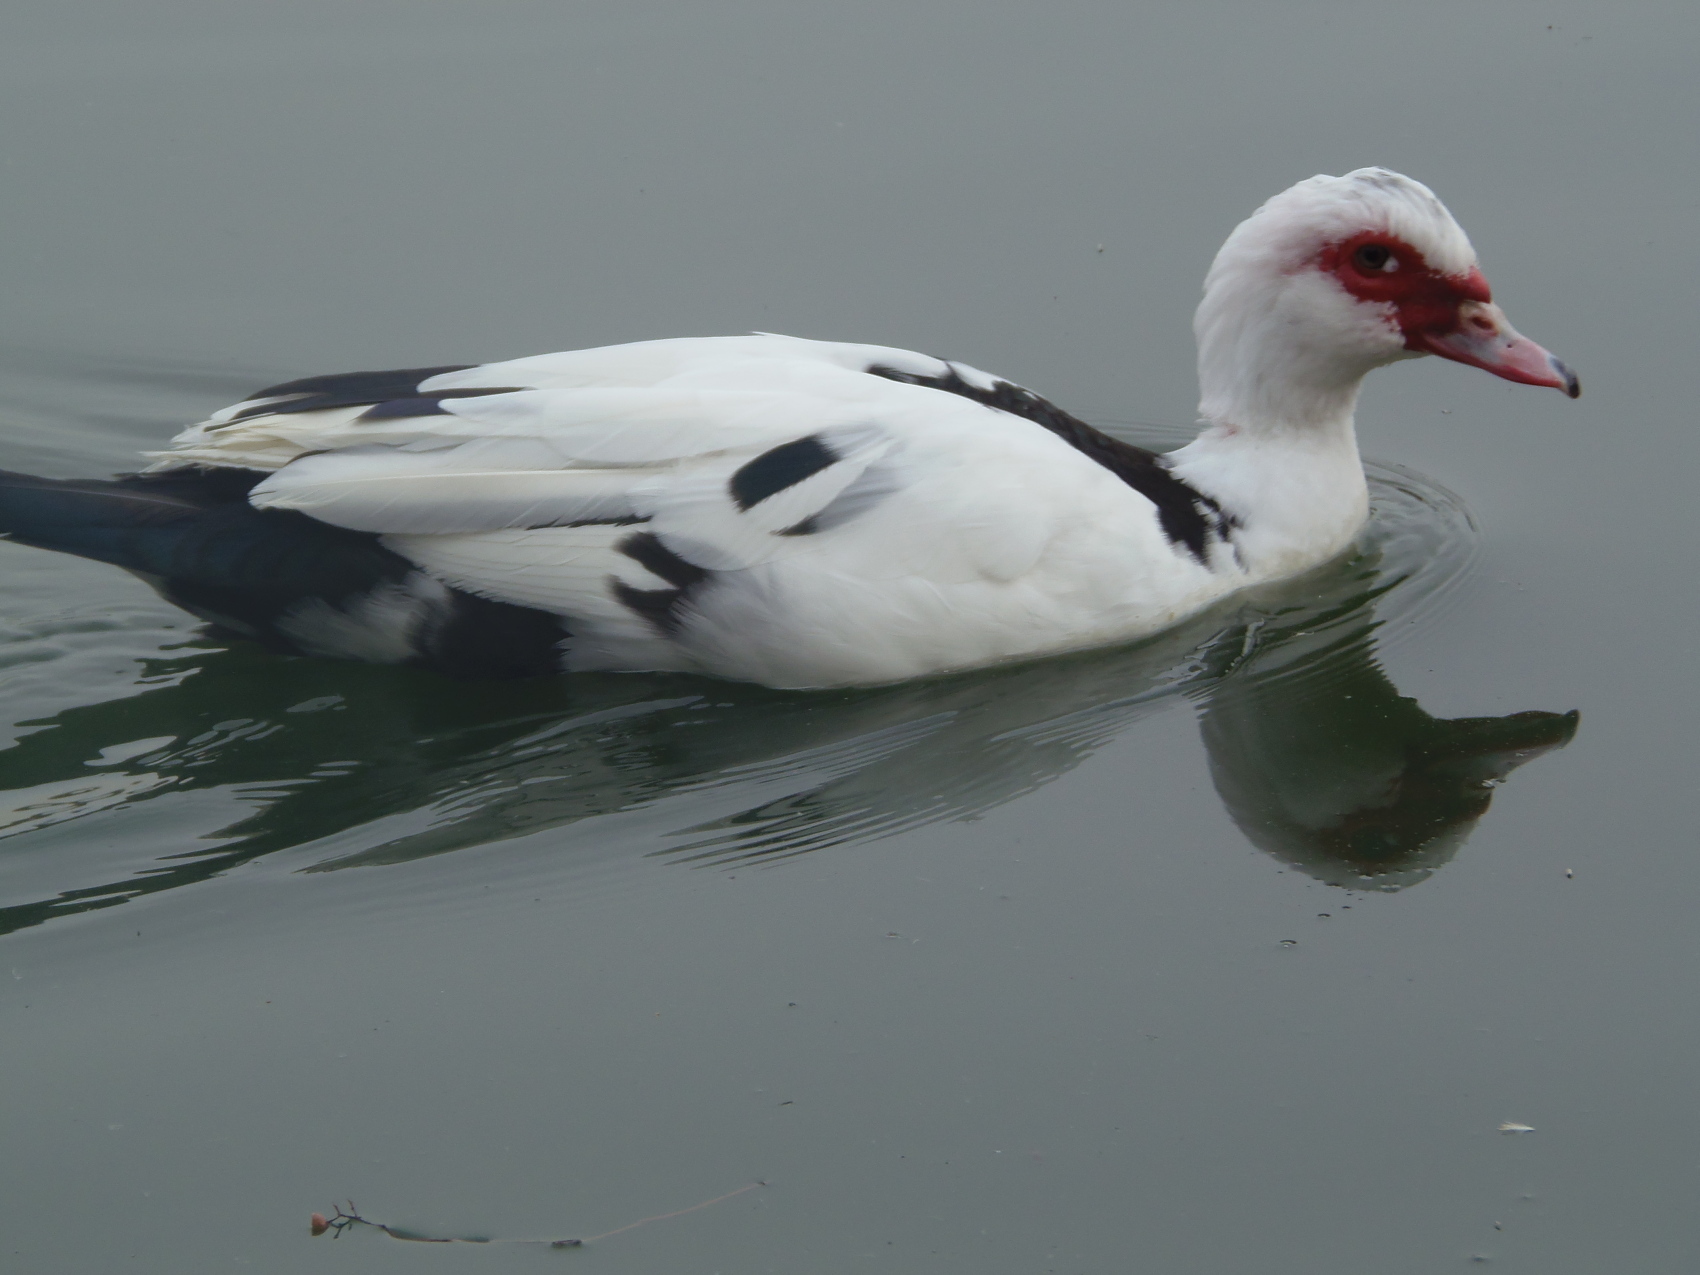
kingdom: Animalia
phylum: Chordata
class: Aves
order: Anseriformes
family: Anatidae
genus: Cairina
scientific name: Cairina moschata
